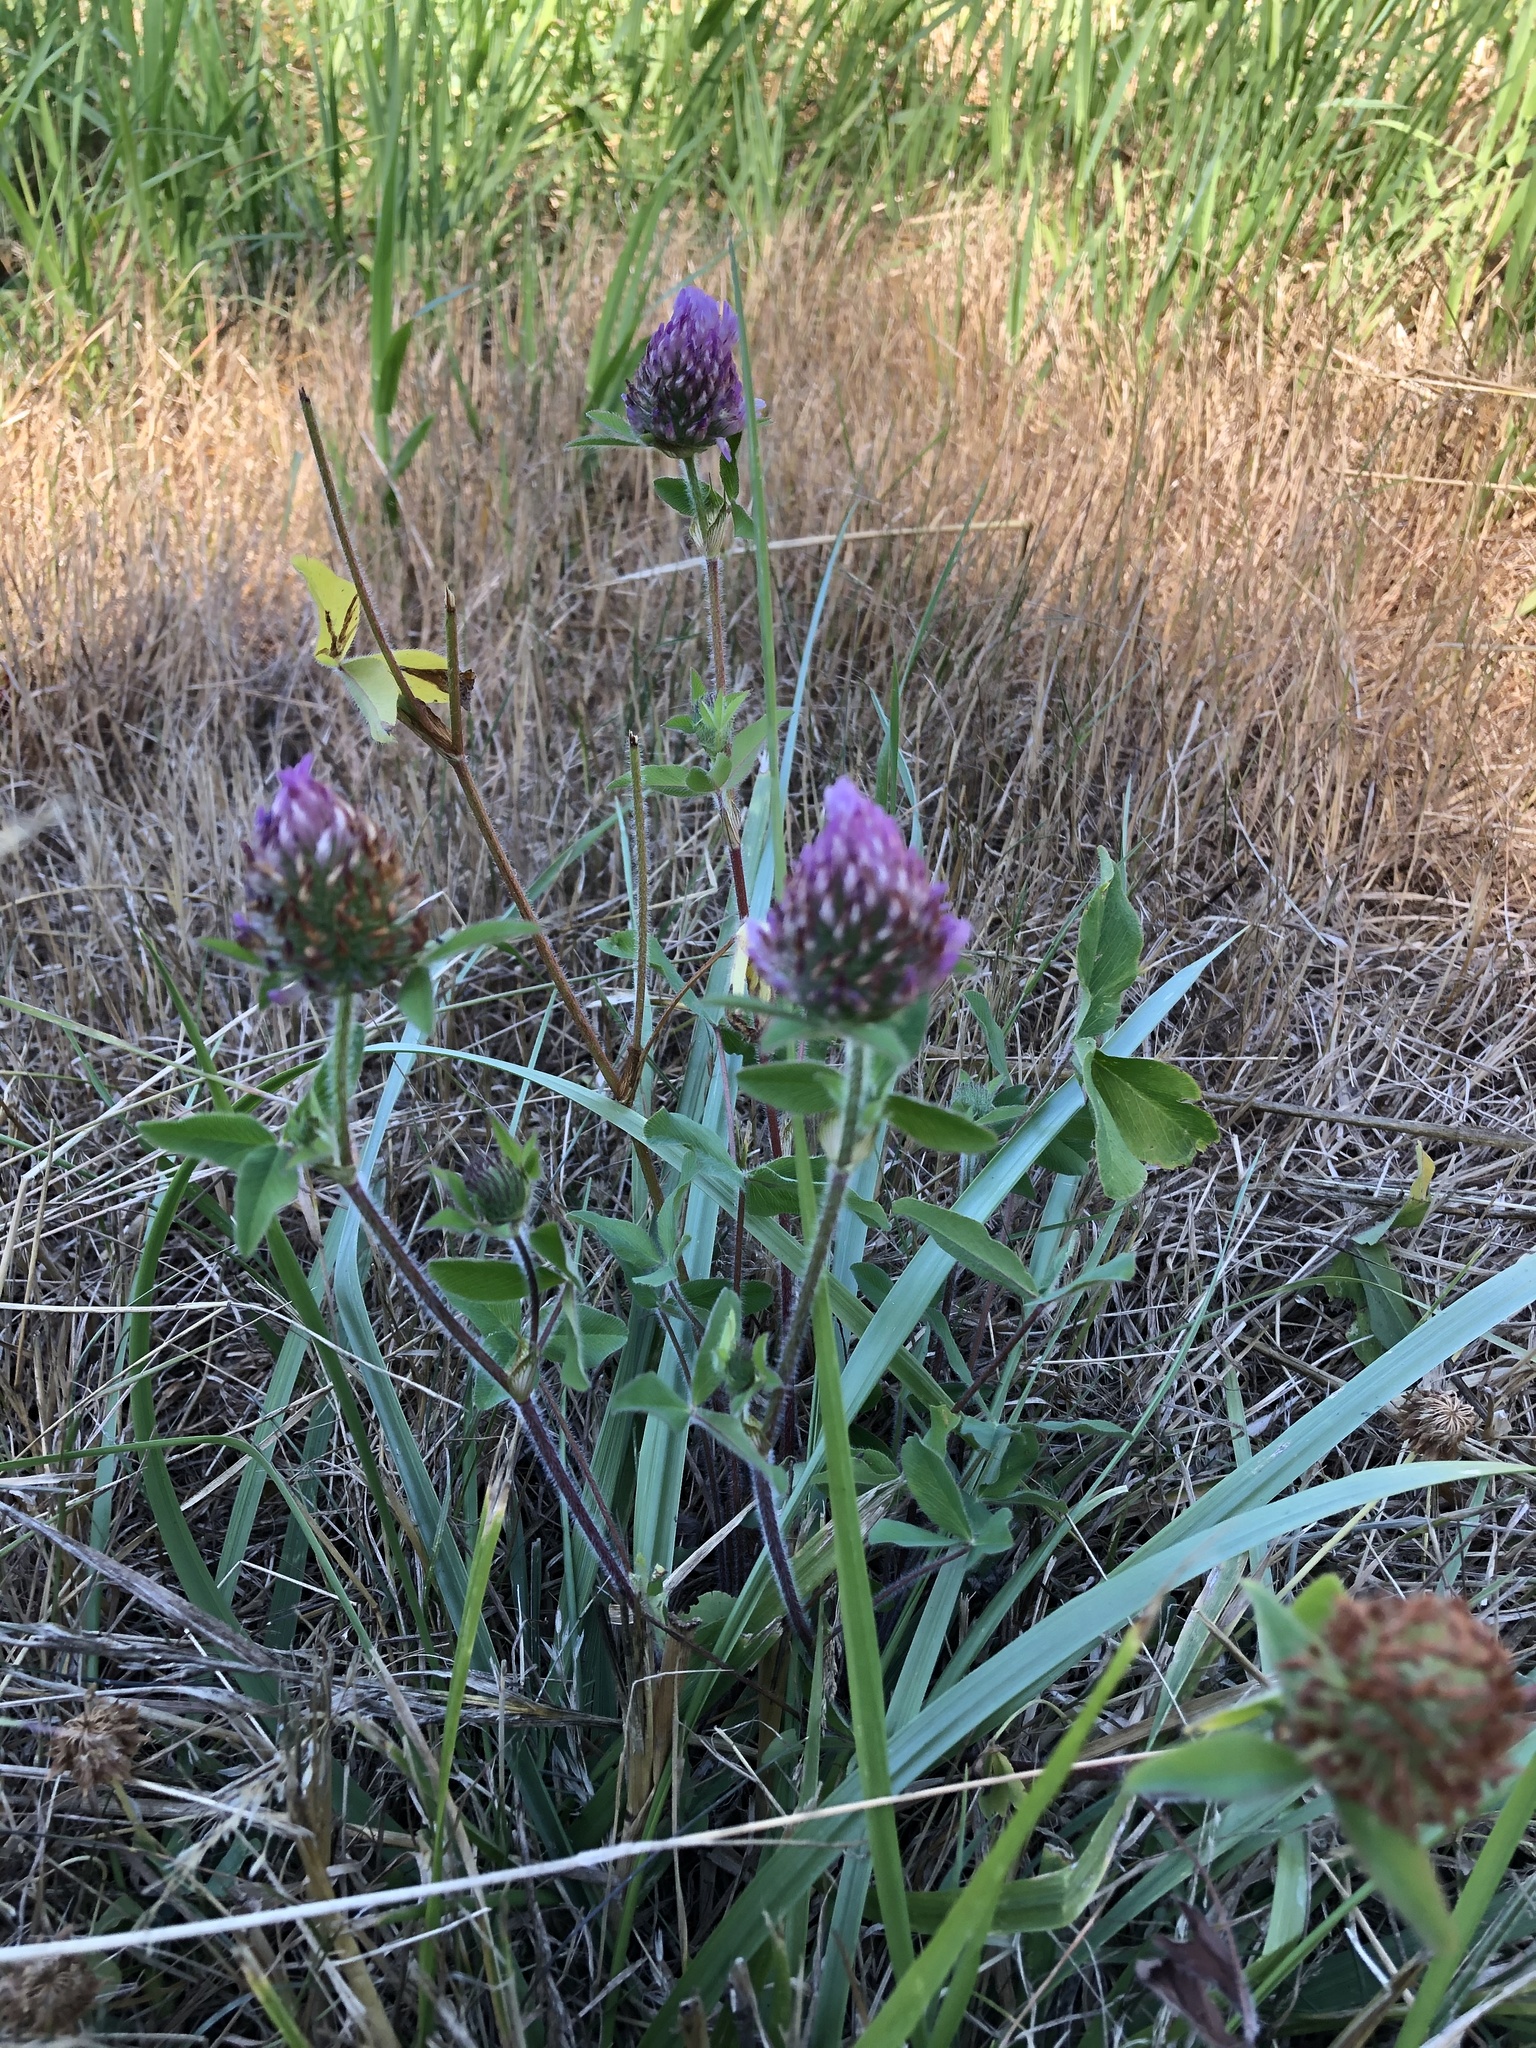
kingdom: Plantae
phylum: Tracheophyta
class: Magnoliopsida
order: Fabales
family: Fabaceae
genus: Trifolium
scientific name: Trifolium pratense
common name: Red clover
